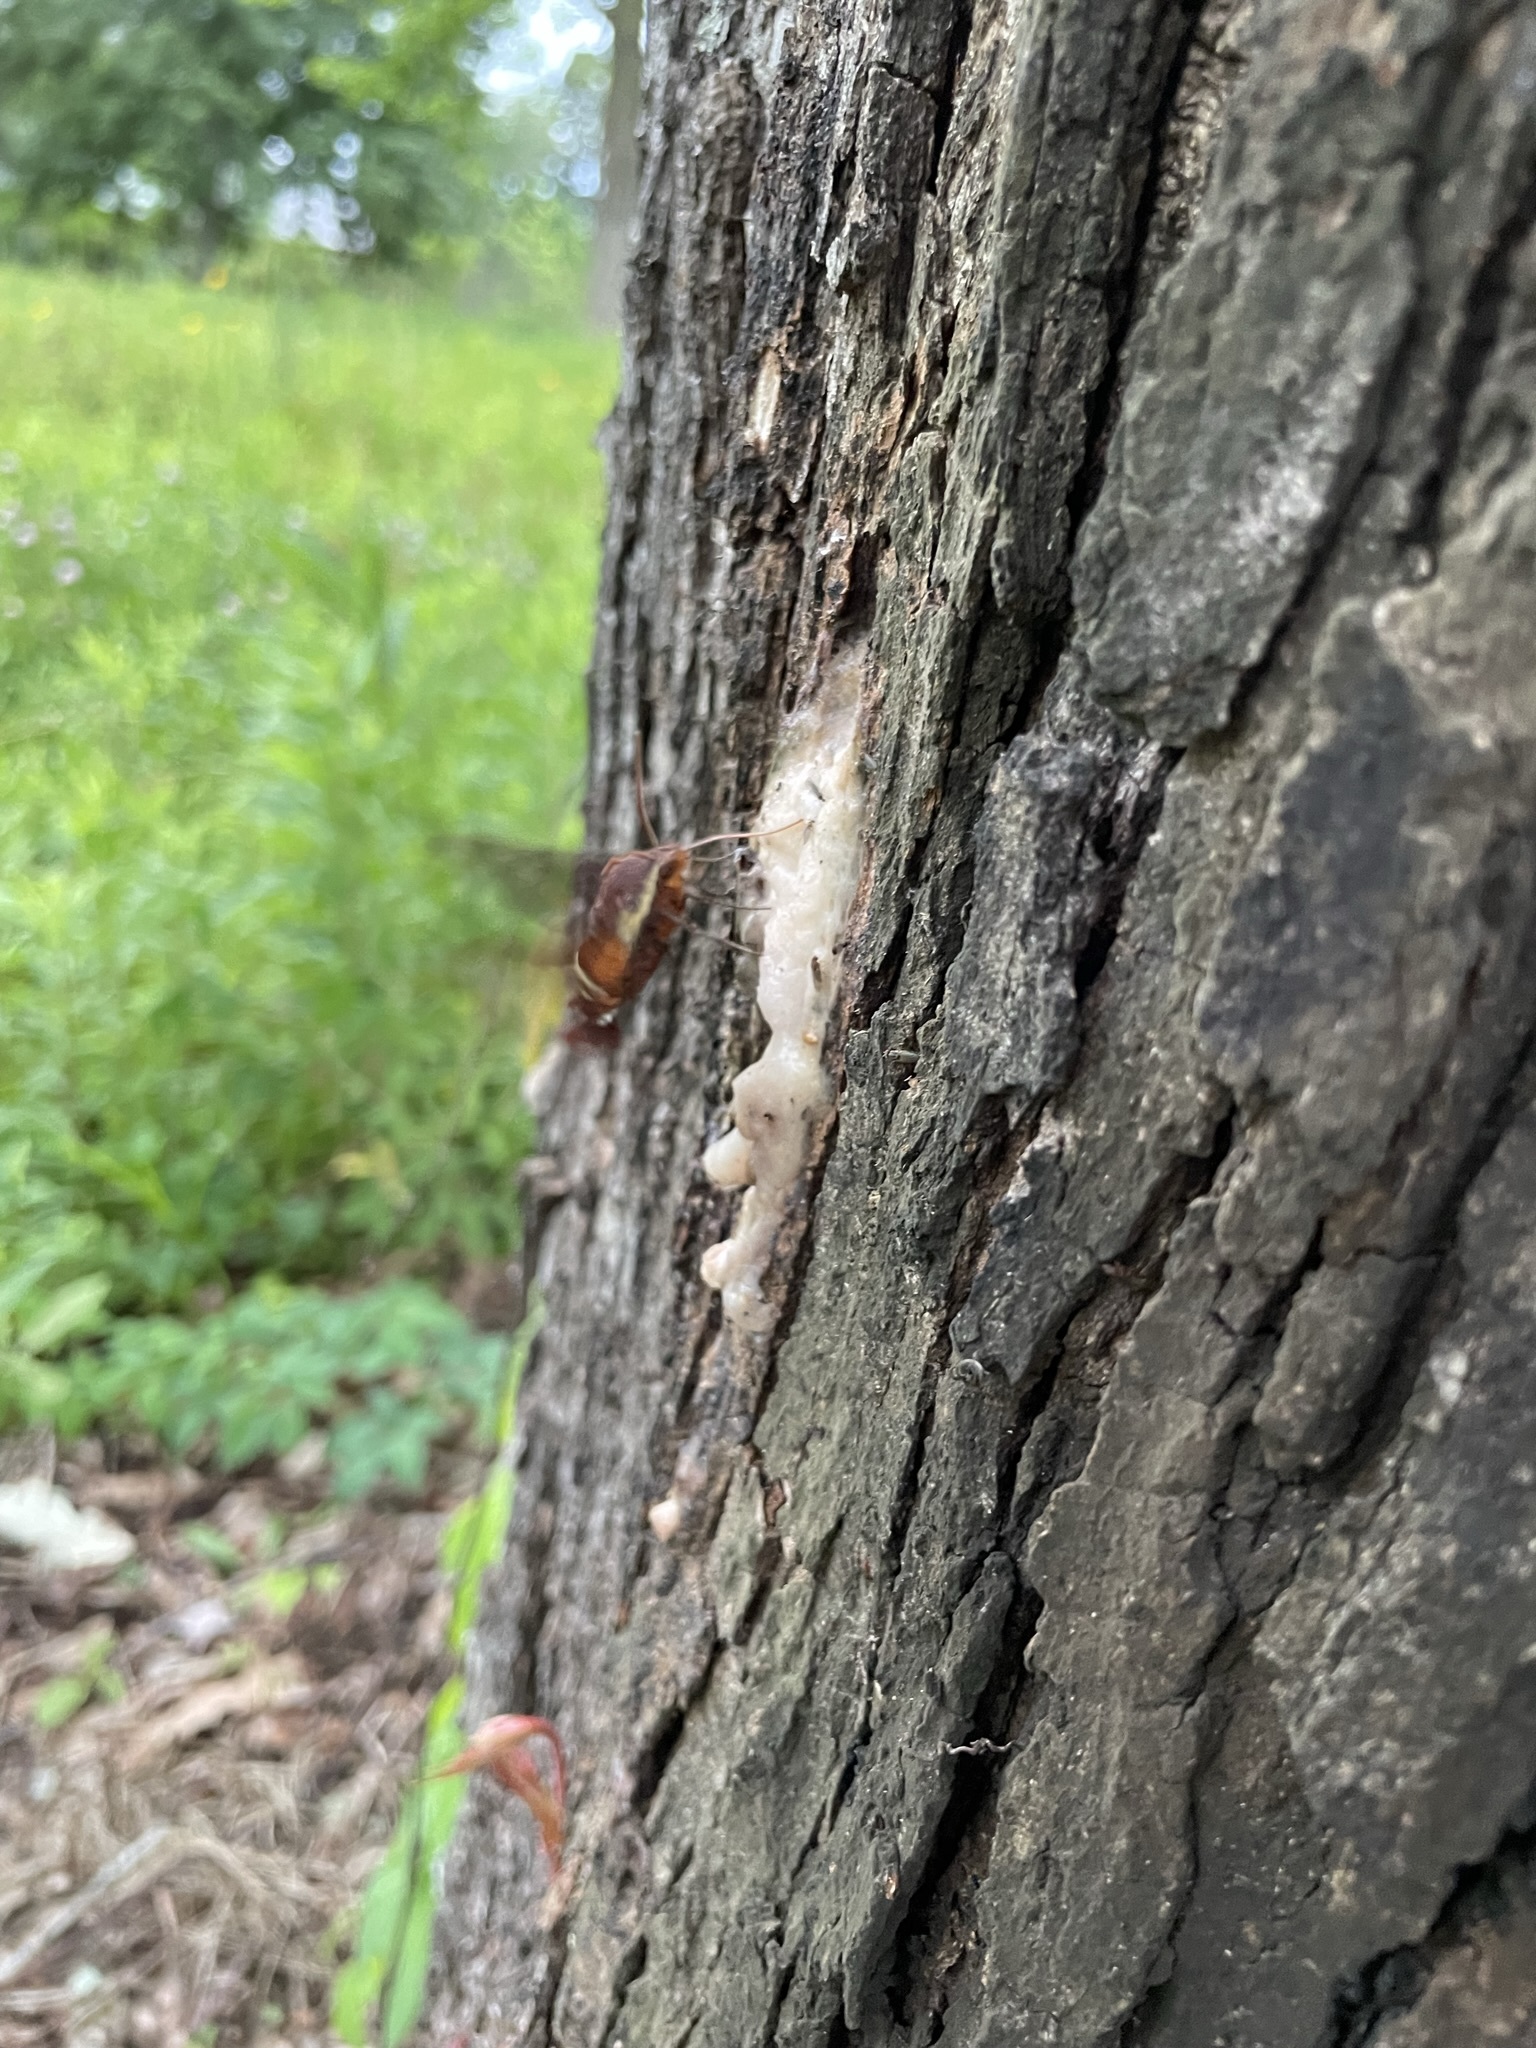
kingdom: Animalia
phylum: Arthropoda
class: Insecta
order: Lepidoptera
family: Sphingidae
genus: Amphion
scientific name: Amphion floridensis
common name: Nessus sphinx
